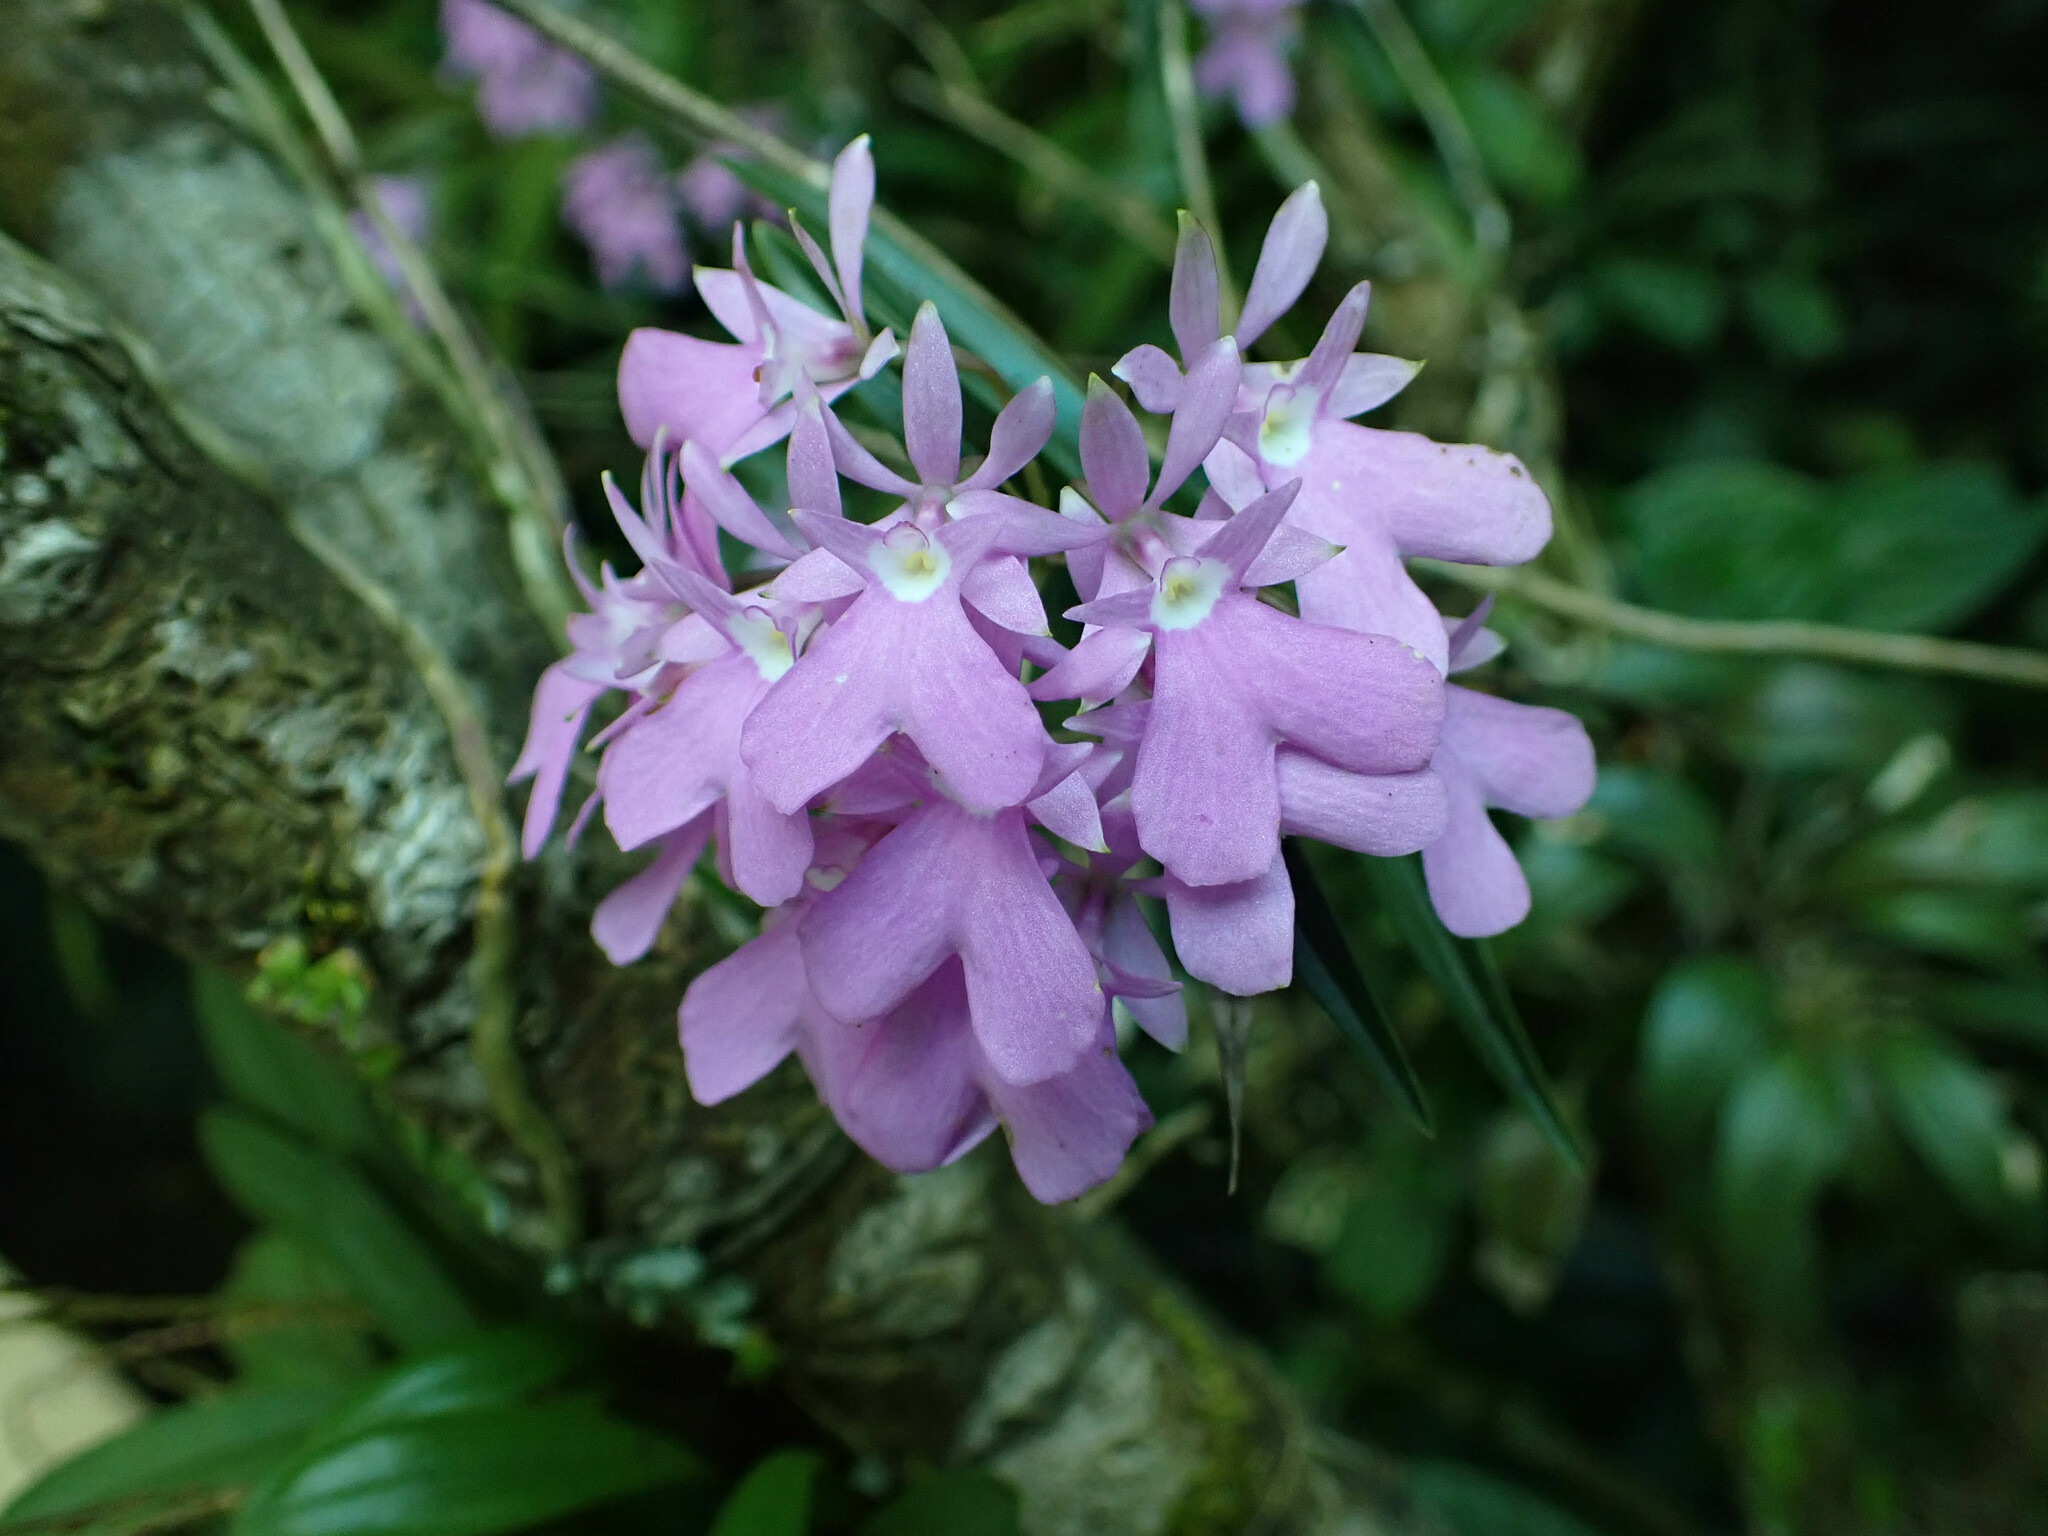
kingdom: Plantae
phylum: Tracheophyta
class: Liliopsida
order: Asparagales
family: Orchidaceae
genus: Epidendrum
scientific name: Epidendrum centropetalum
